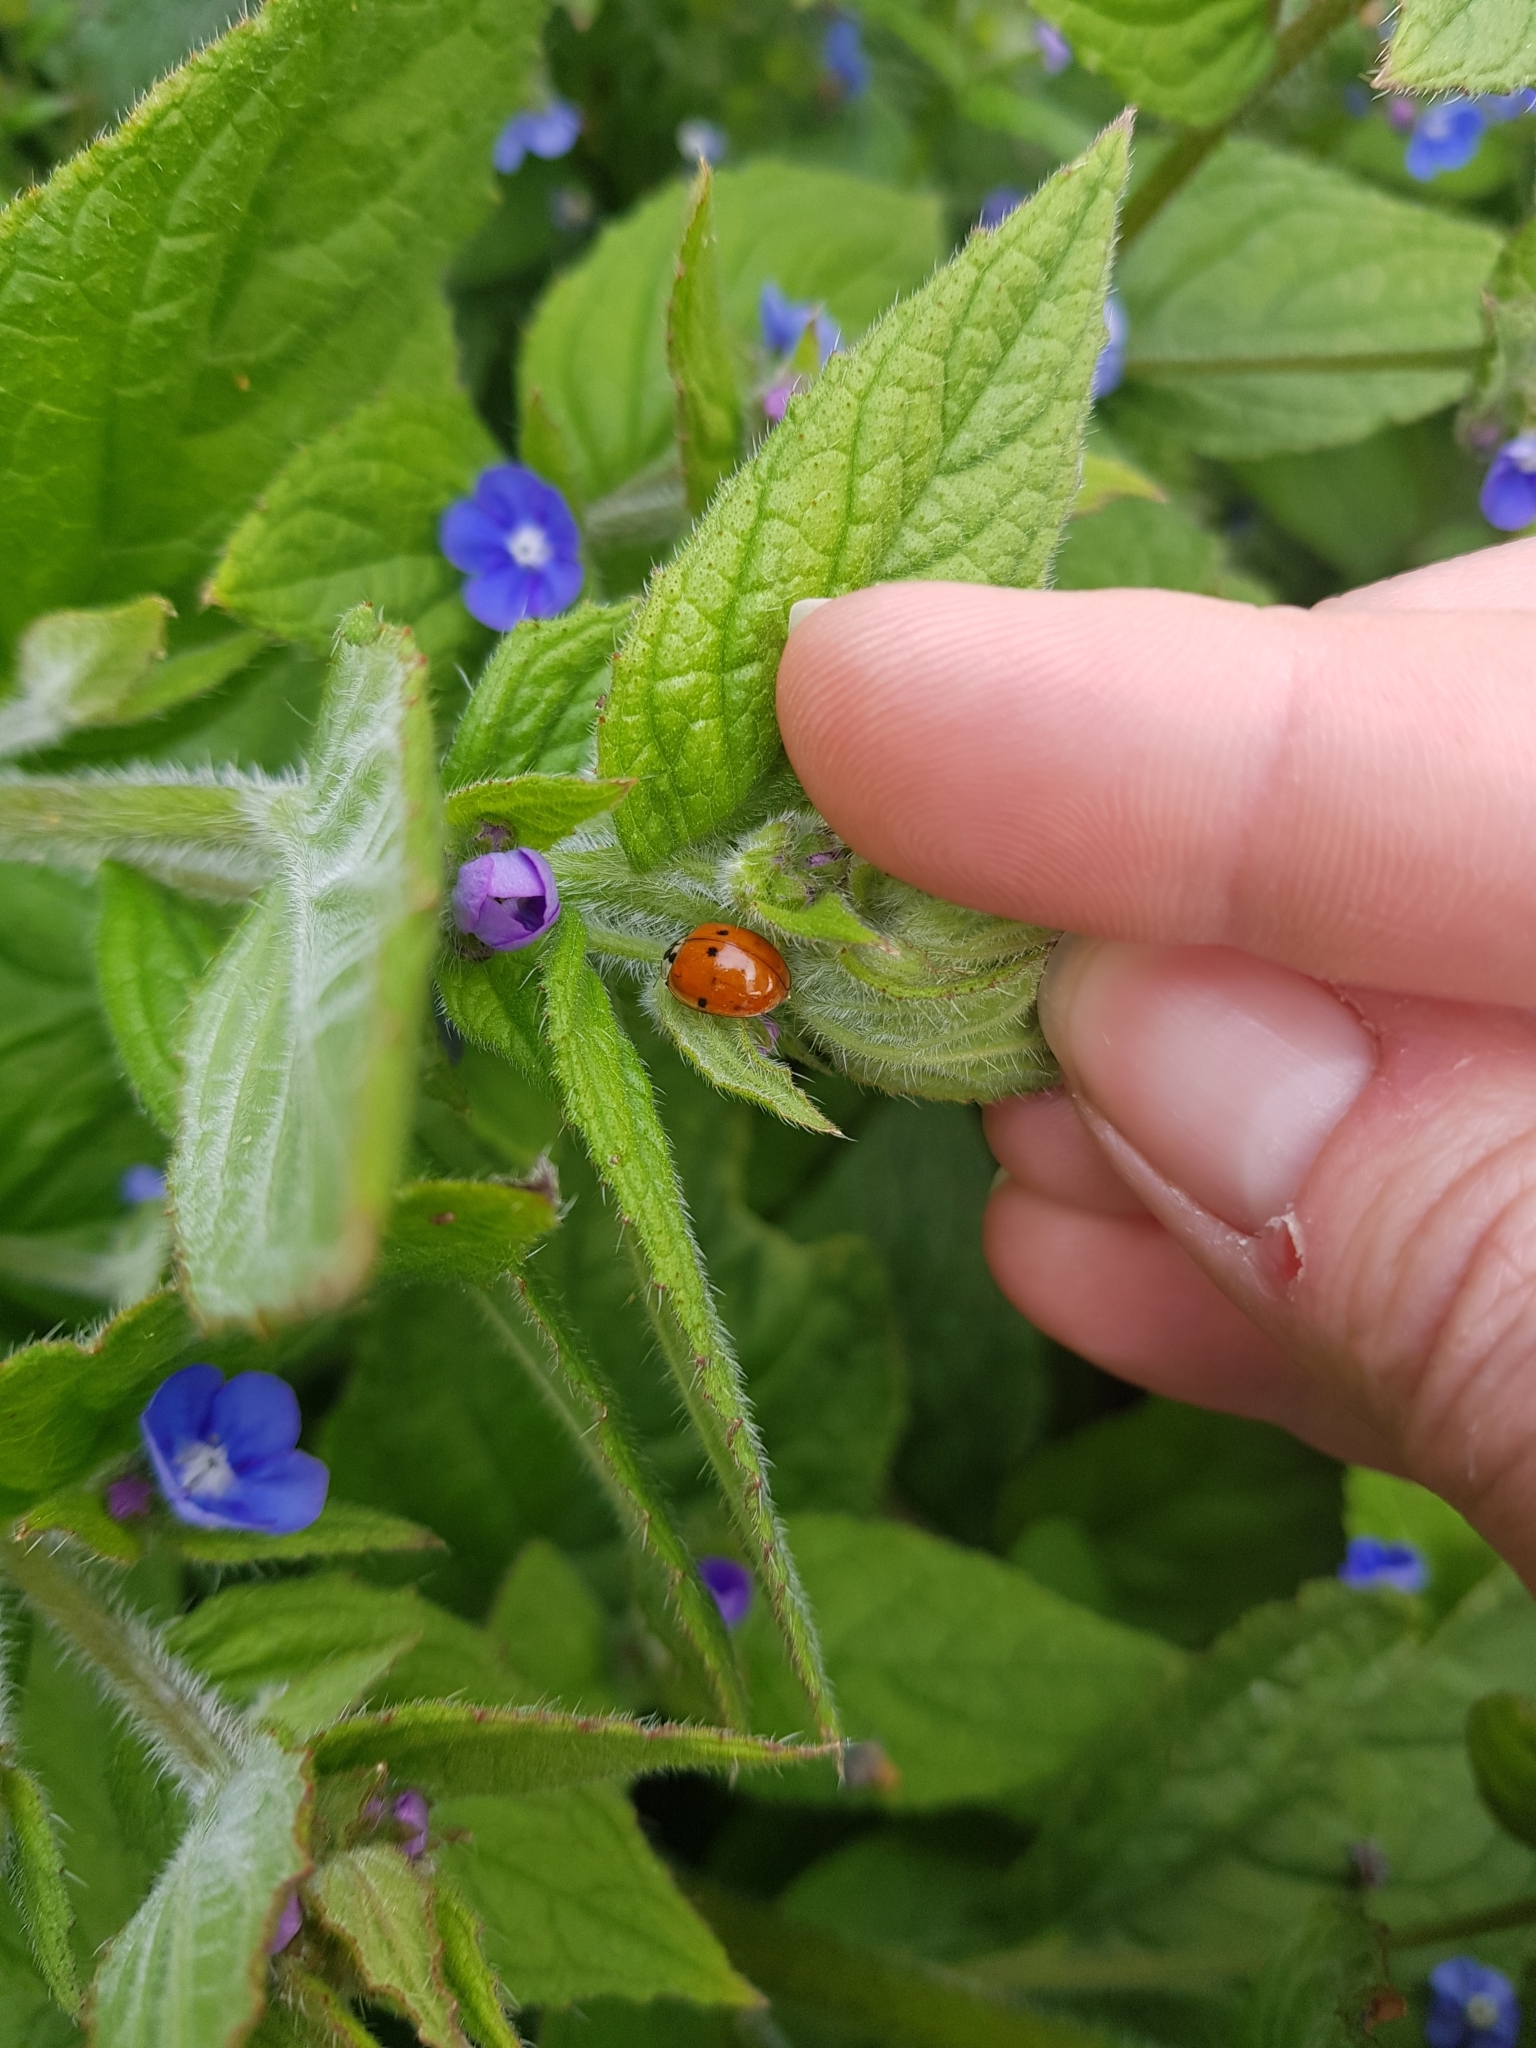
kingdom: Animalia
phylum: Arthropoda
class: Insecta
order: Coleoptera
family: Coccinellidae
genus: Harmonia
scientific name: Harmonia axyridis
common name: Harlequin ladybird
